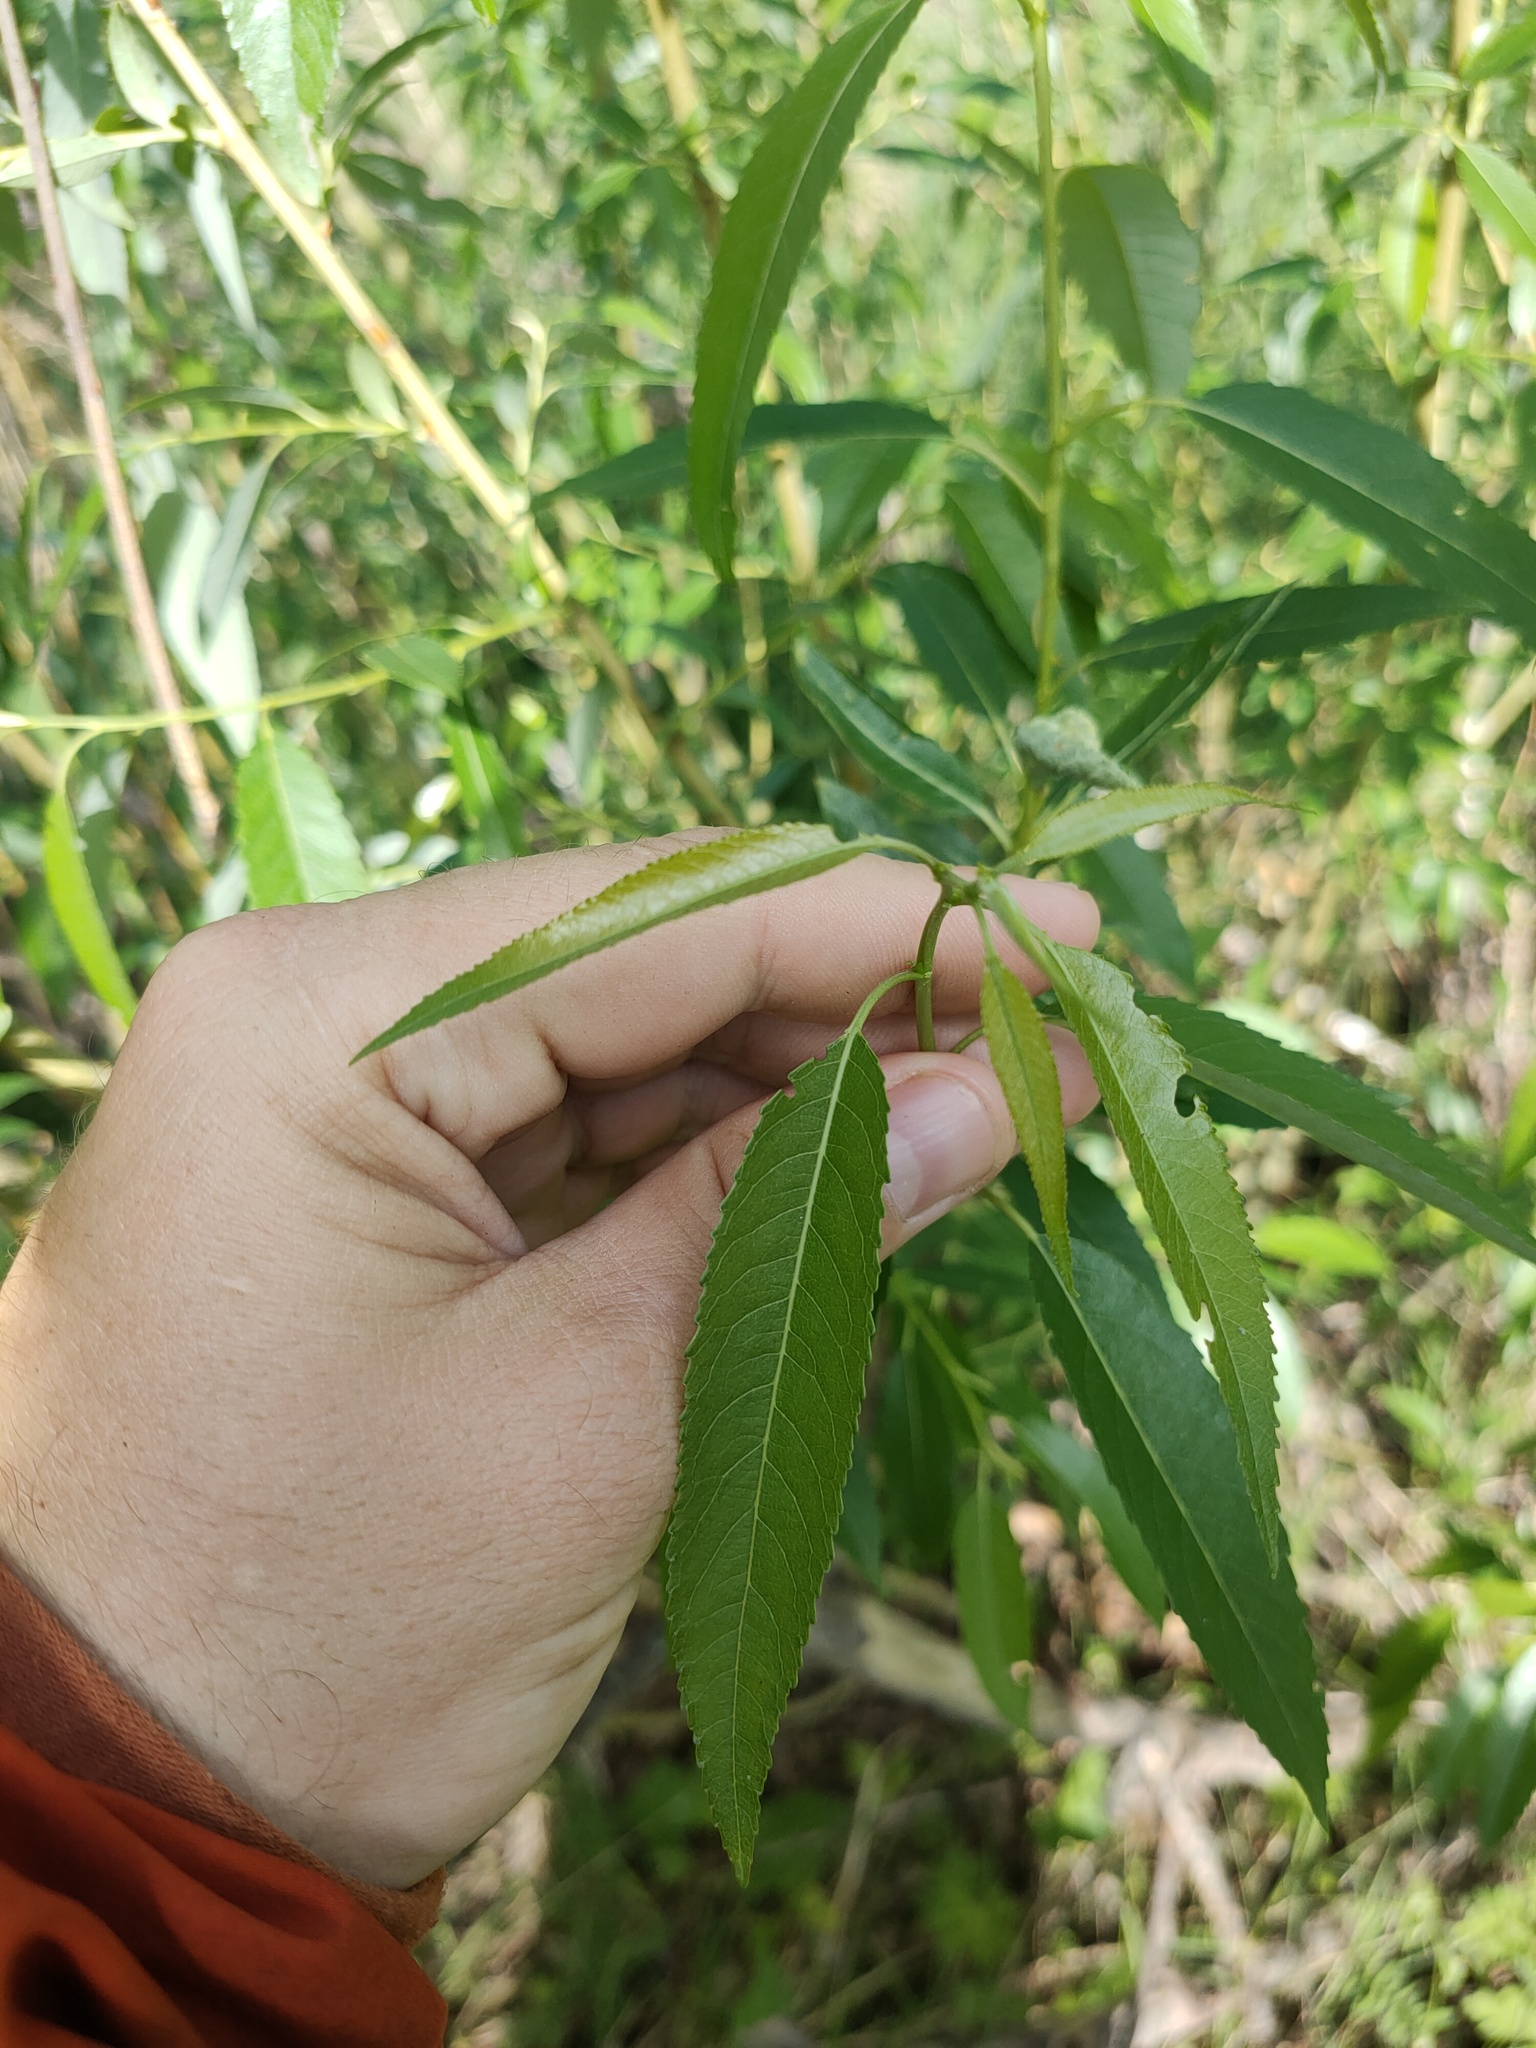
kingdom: Plantae
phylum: Tracheophyta
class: Magnoliopsida
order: Malpighiales
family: Salicaceae
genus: Salix
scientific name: Salix alba
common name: White willow
